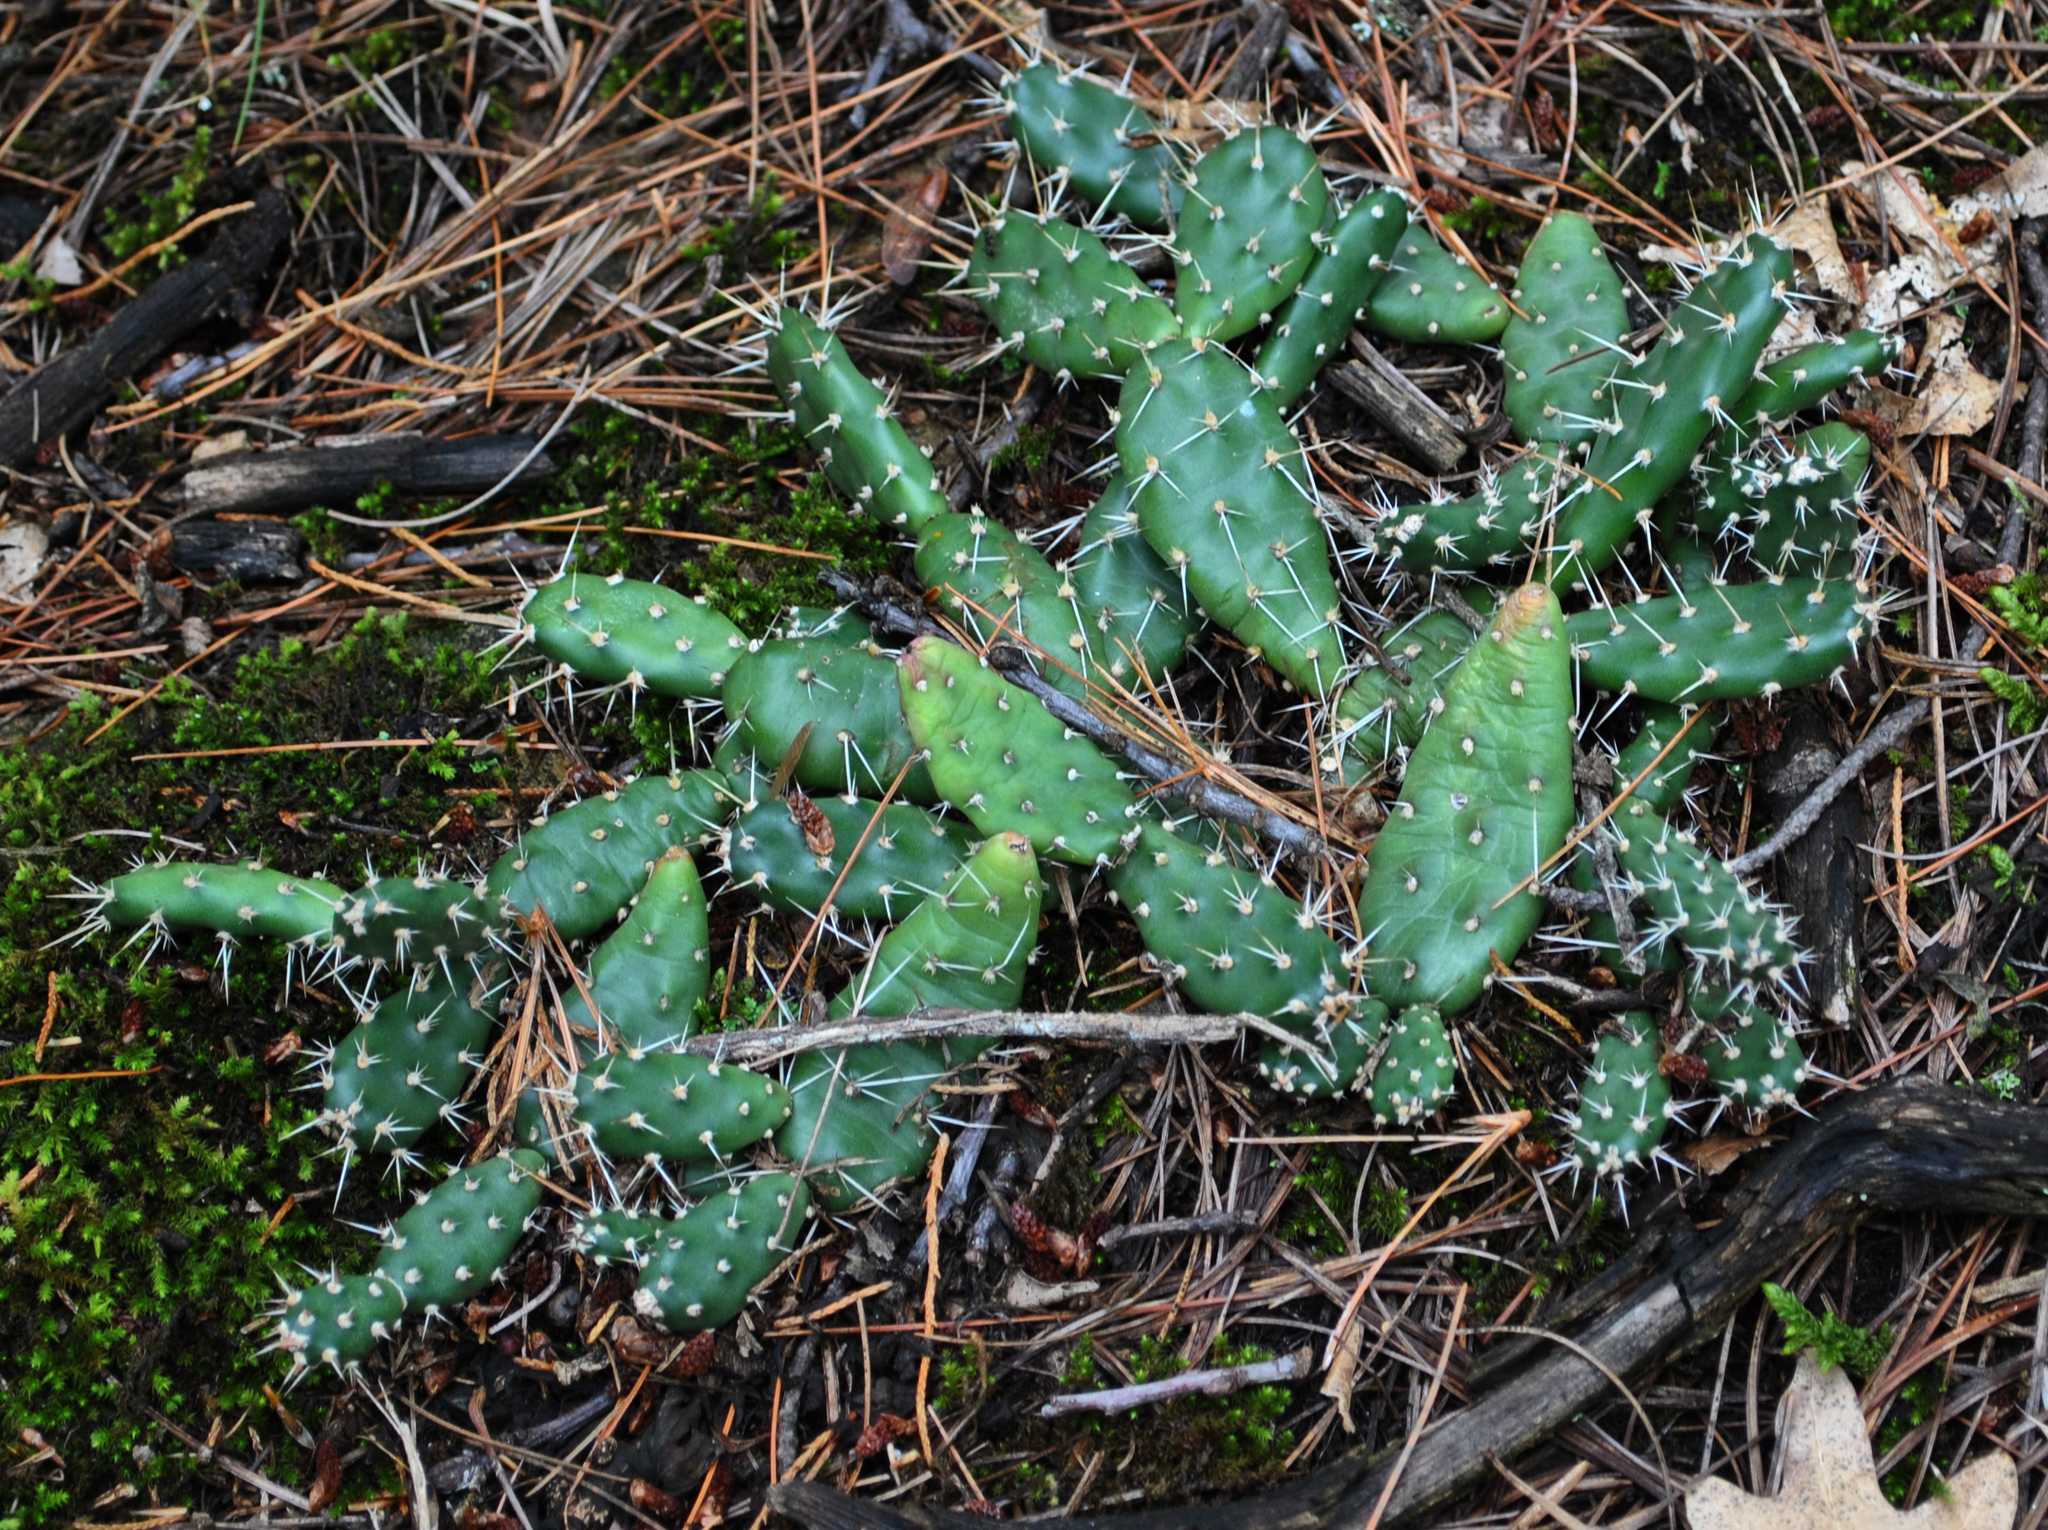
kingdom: Plantae
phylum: Tracheophyta
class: Magnoliopsida
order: Caryophyllales
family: Cactaceae
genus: Opuntia
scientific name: Opuntia fragilis
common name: Brittle cactus
